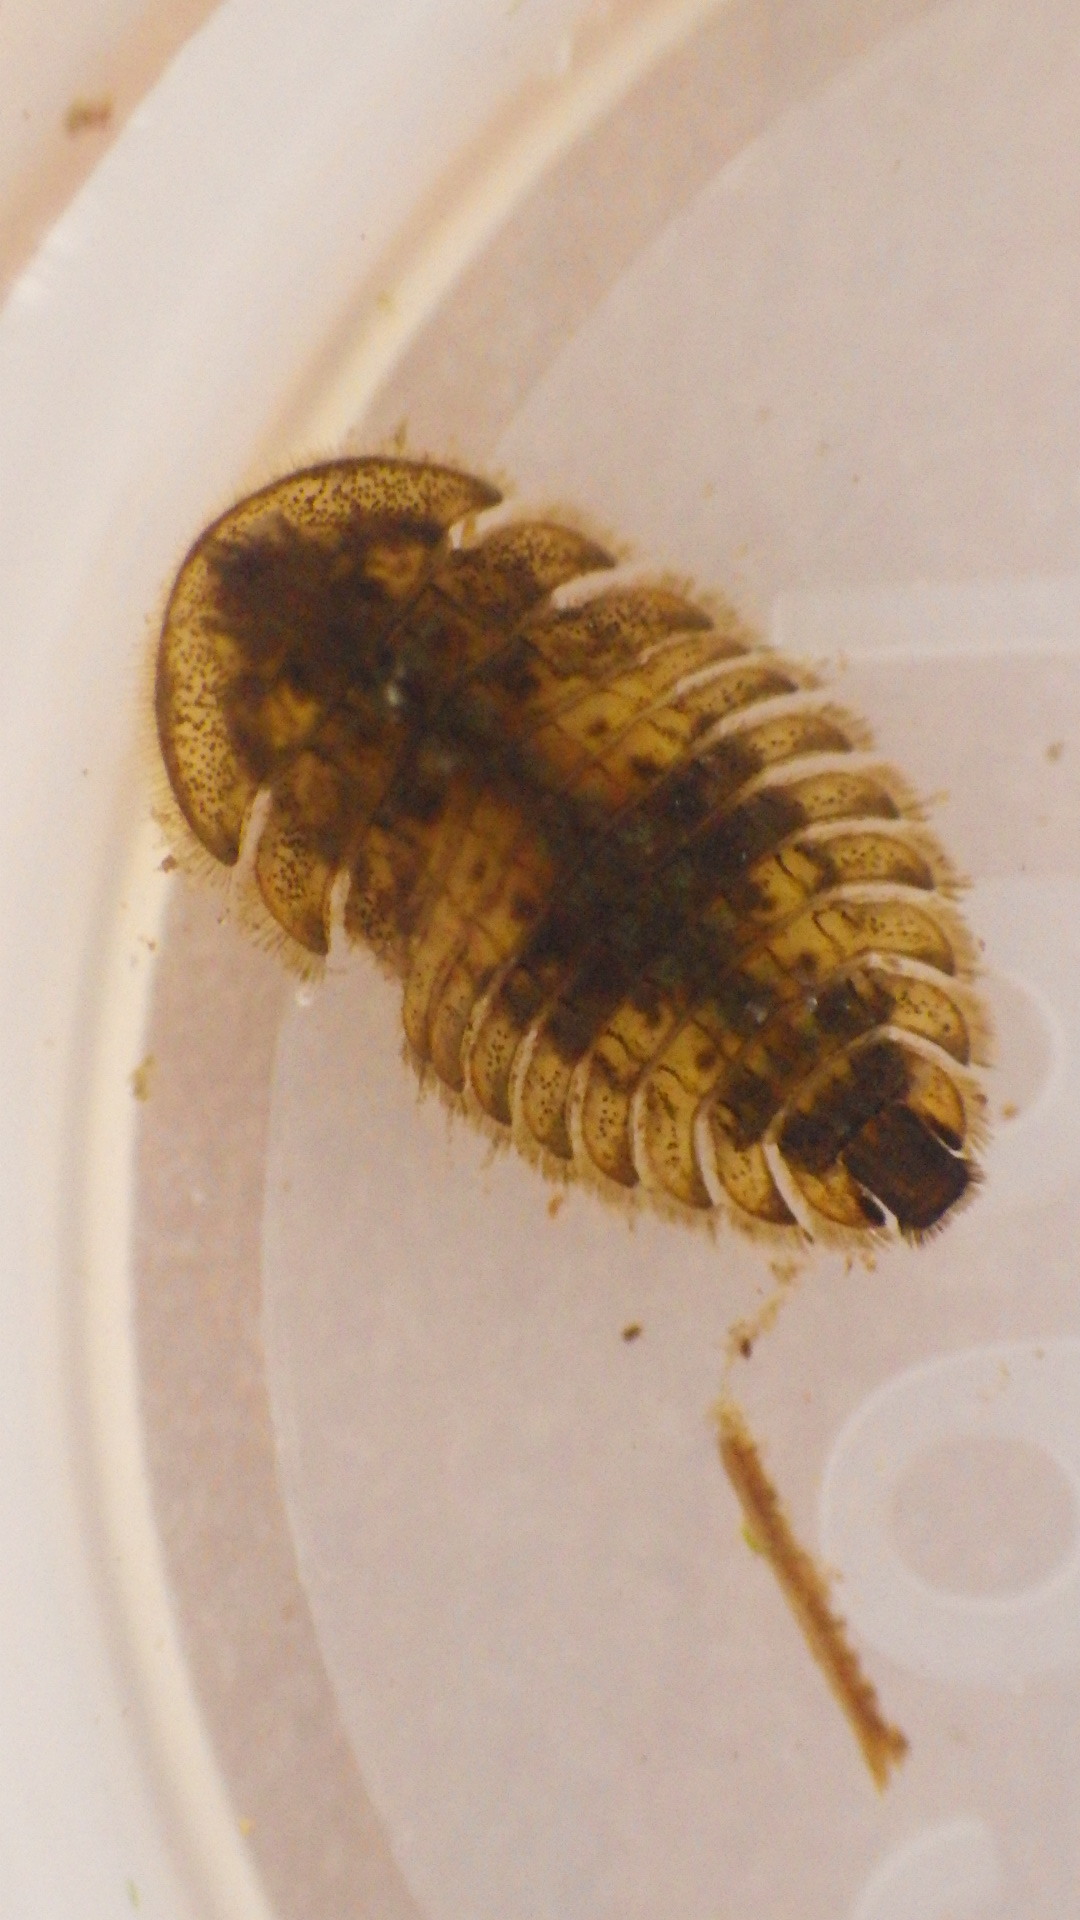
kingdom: Animalia
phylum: Arthropoda
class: Insecta
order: Coleoptera
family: Psephenidae
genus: Ectopria
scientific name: Ectopria nervosa
